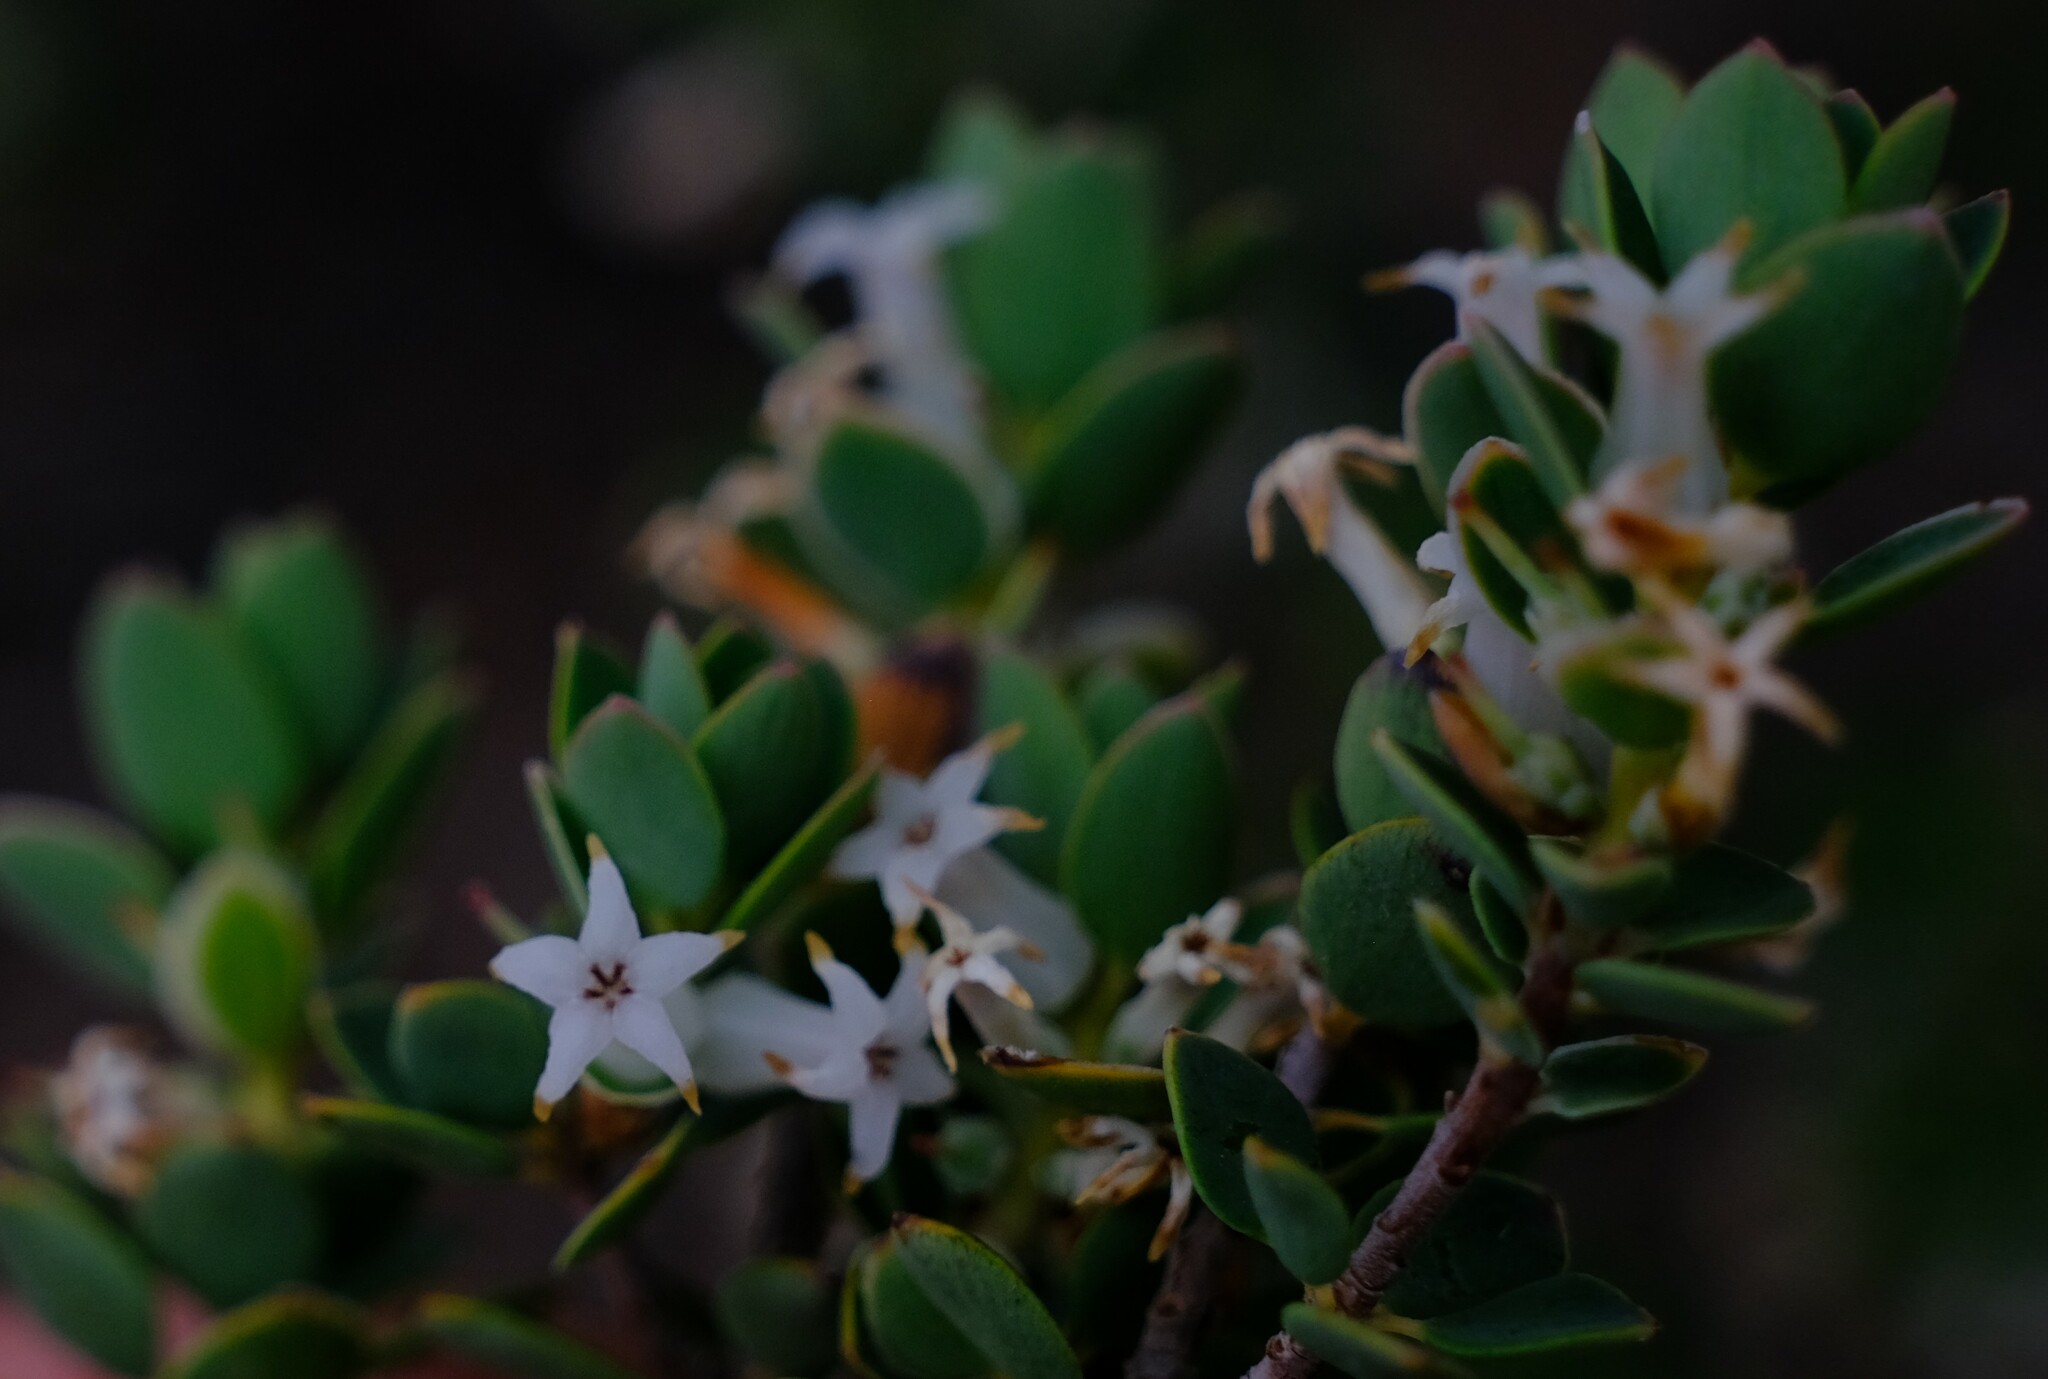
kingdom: Plantae
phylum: Tracheophyta
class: Magnoliopsida
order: Ericales
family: Ericaceae
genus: Brachyloma
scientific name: Brachyloma daphnoides
